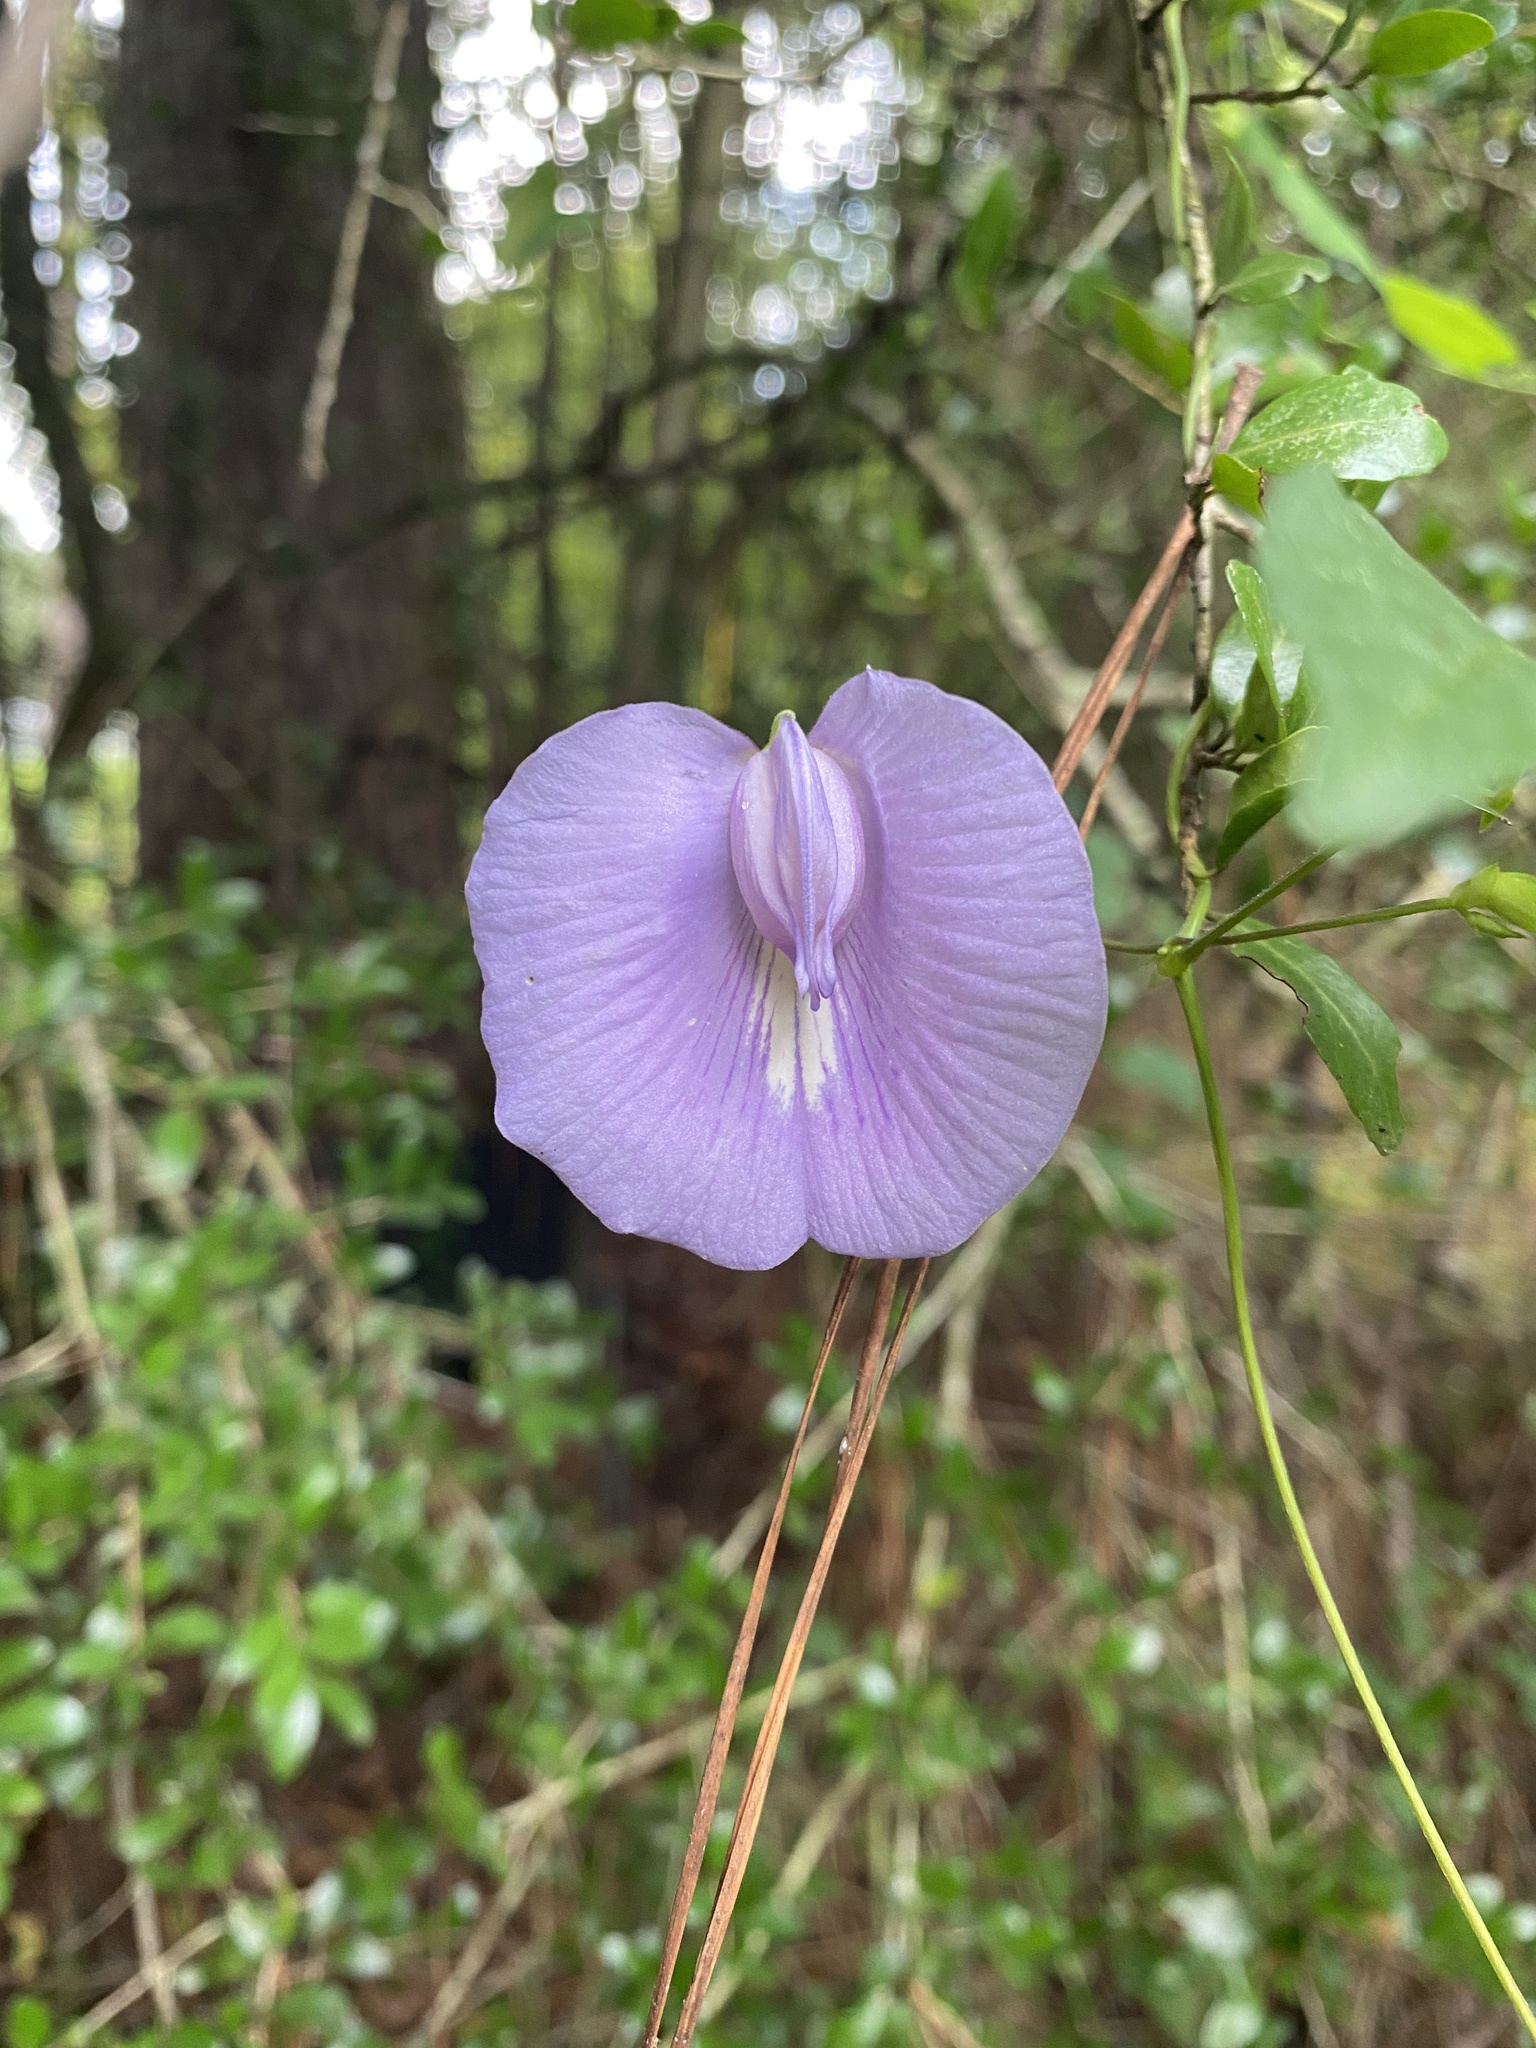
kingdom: Plantae
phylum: Tracheophyta
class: Magnoliopsida
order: Fabales
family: Fabaceae
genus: Centrosema
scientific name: Centrosema virginianum
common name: Butterfly-pea
